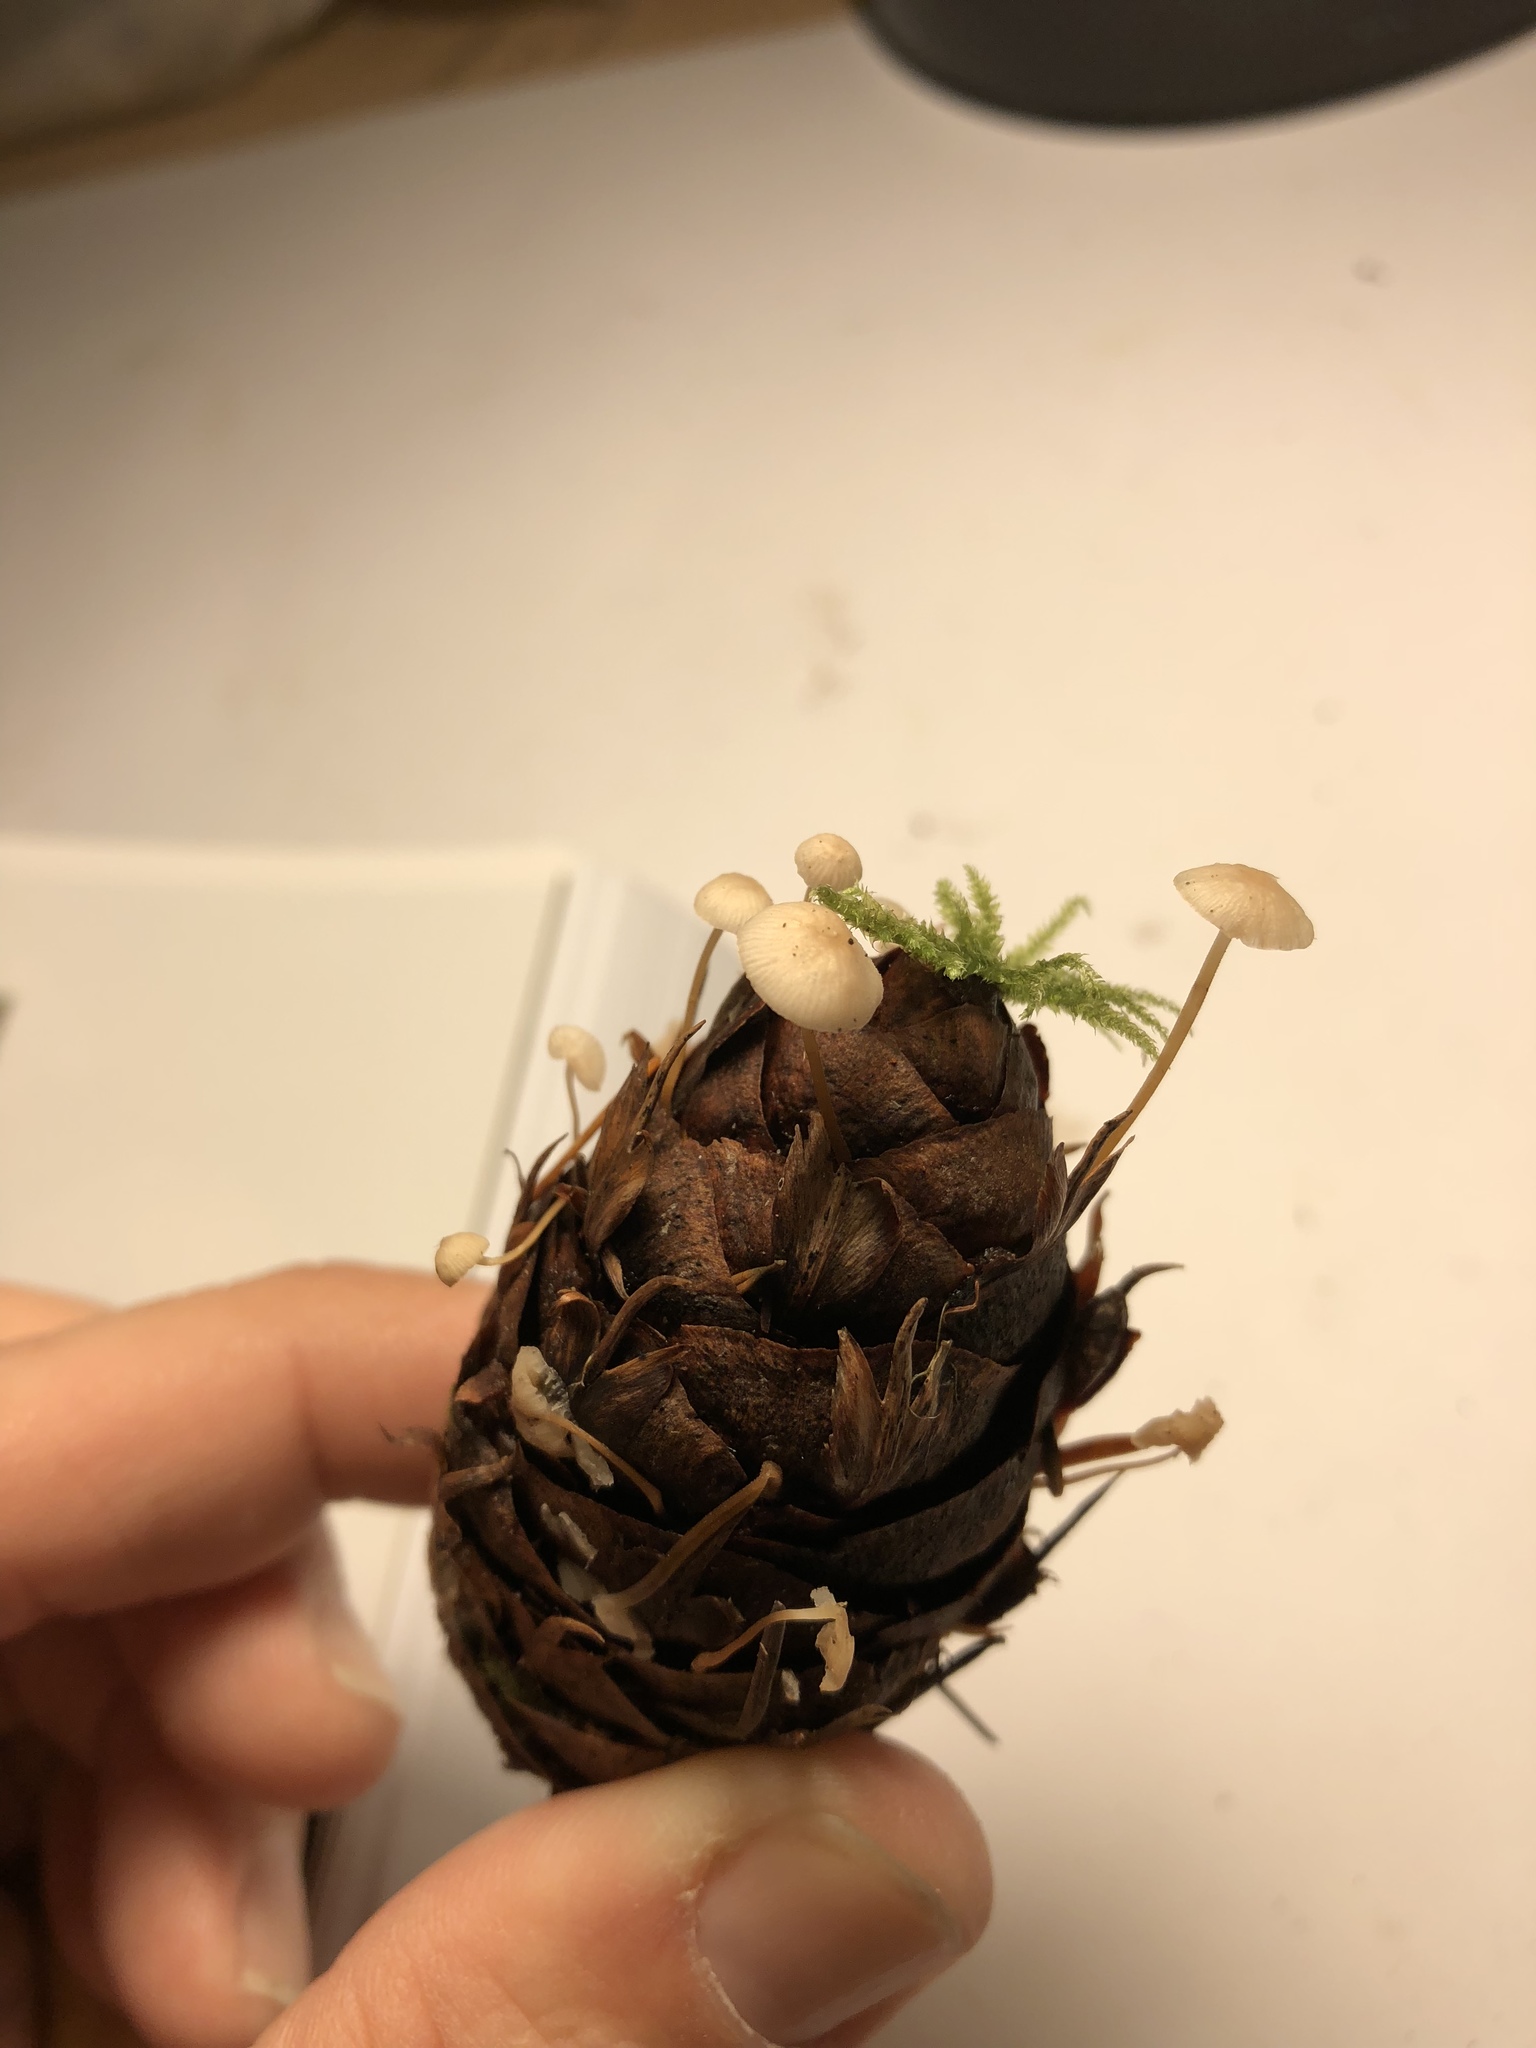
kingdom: Fungi
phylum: Basidiomycota
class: Agaricomycetes
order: Agaricales
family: Physalacriaceae
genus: Strobilurus
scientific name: Strobilurus trullisatus
